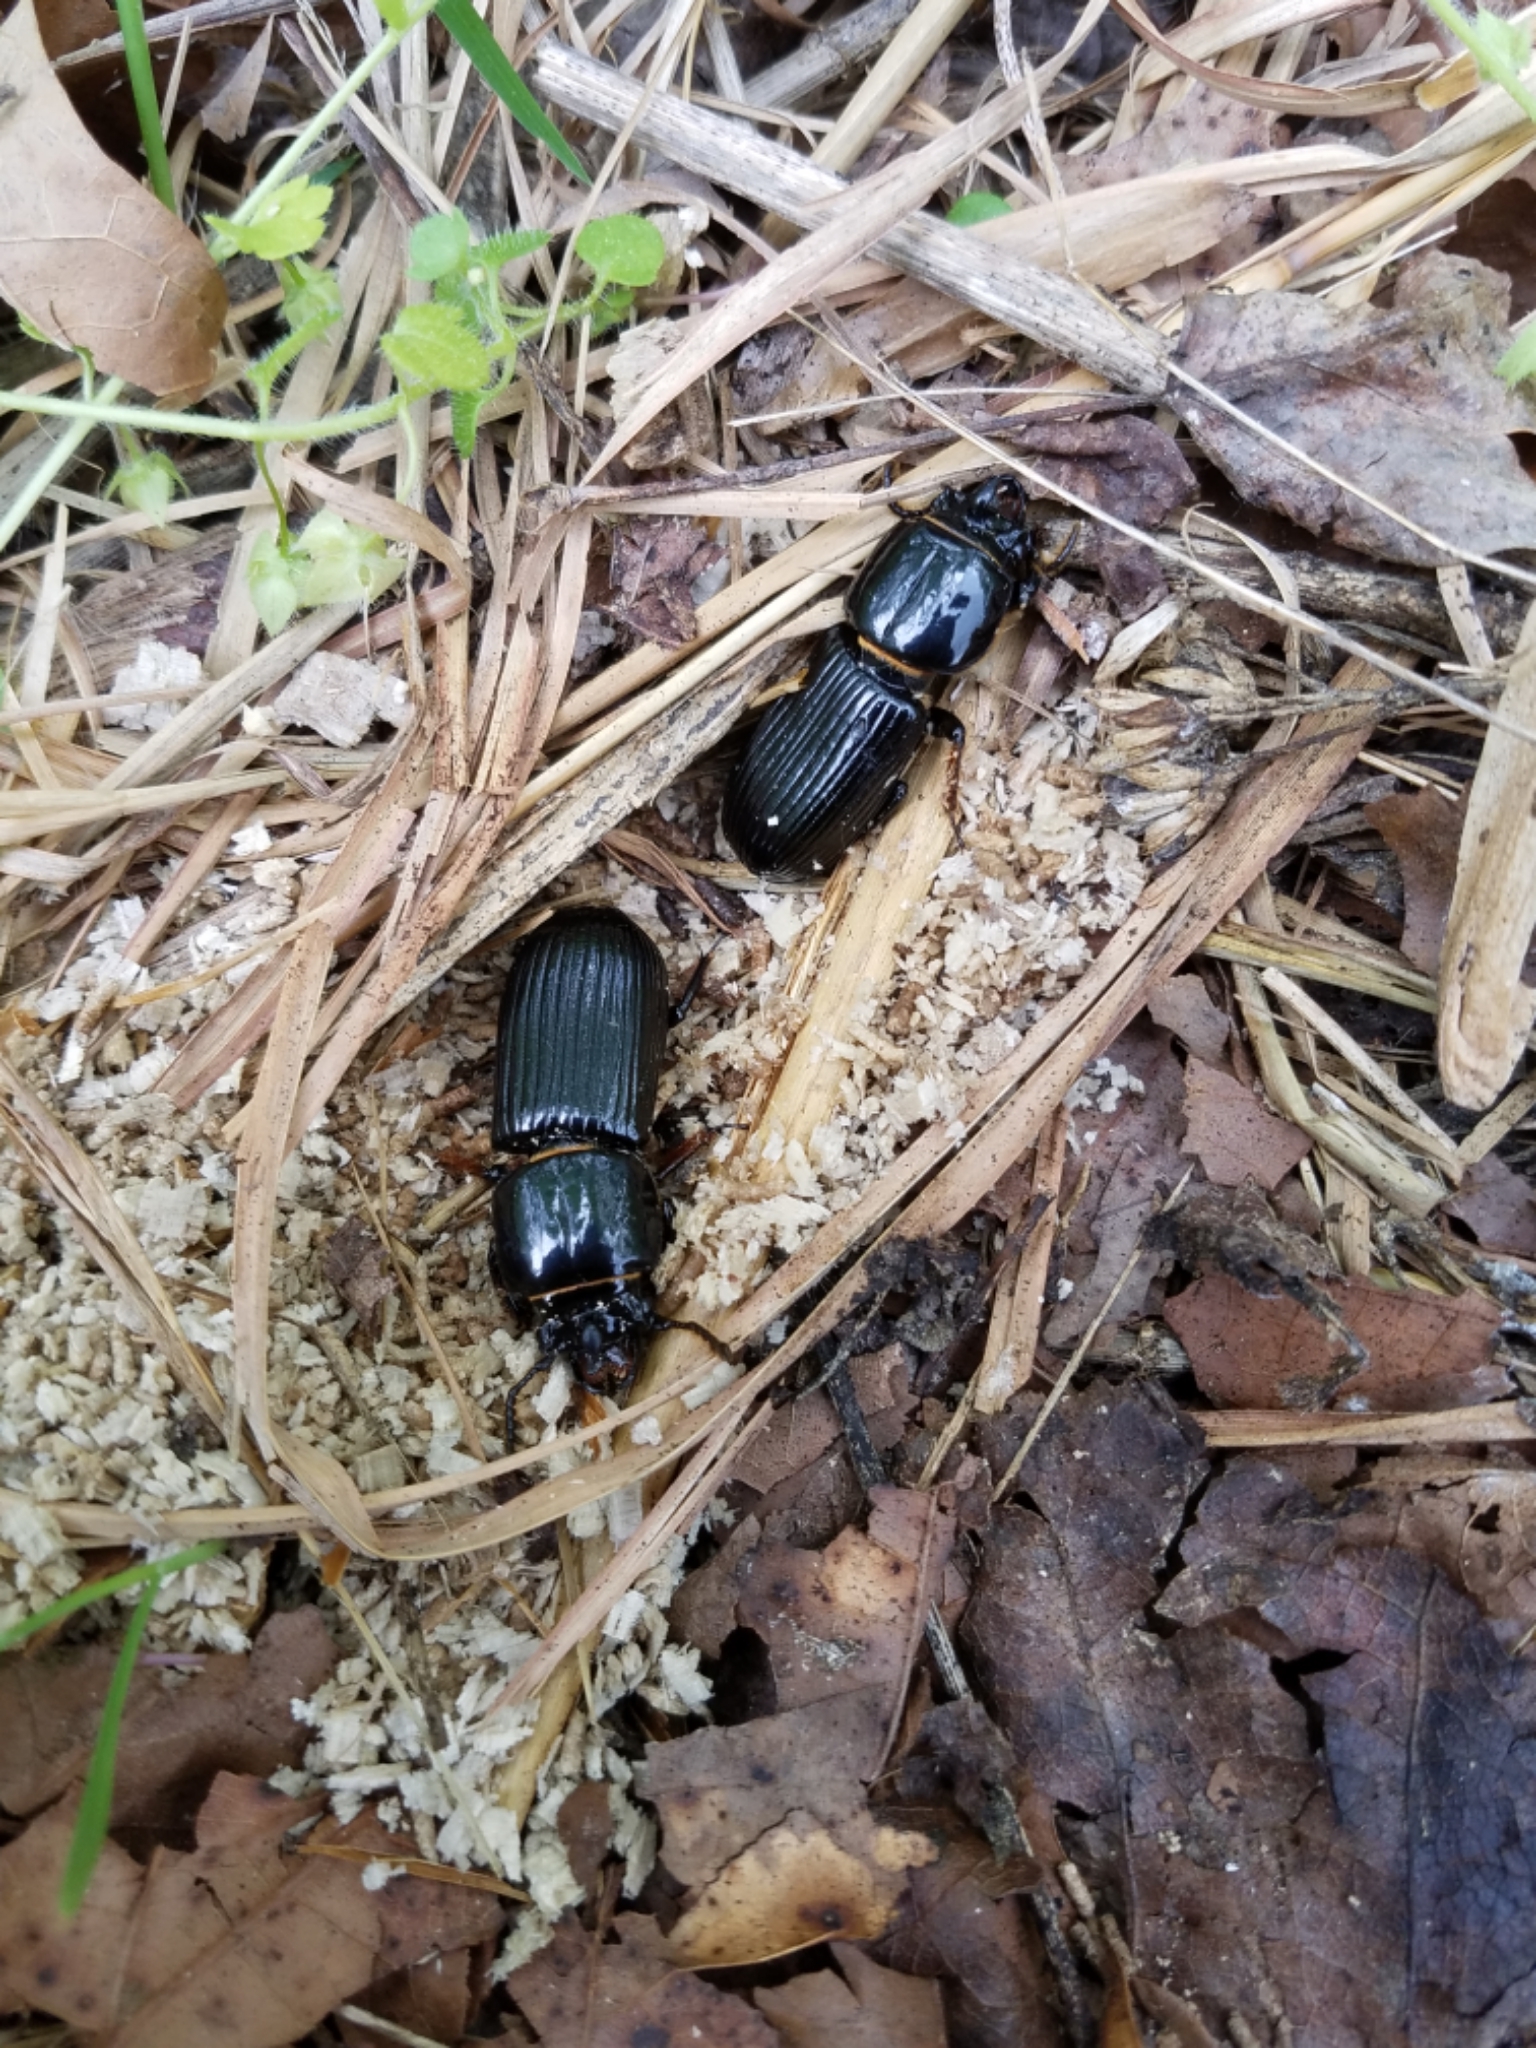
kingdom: Animalia
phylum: Arthropoda
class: Insecta
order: Coleoptera
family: Passalidae
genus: Odontotaenius
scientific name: Odontotaenius disjunctus
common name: Patent leather beetle
